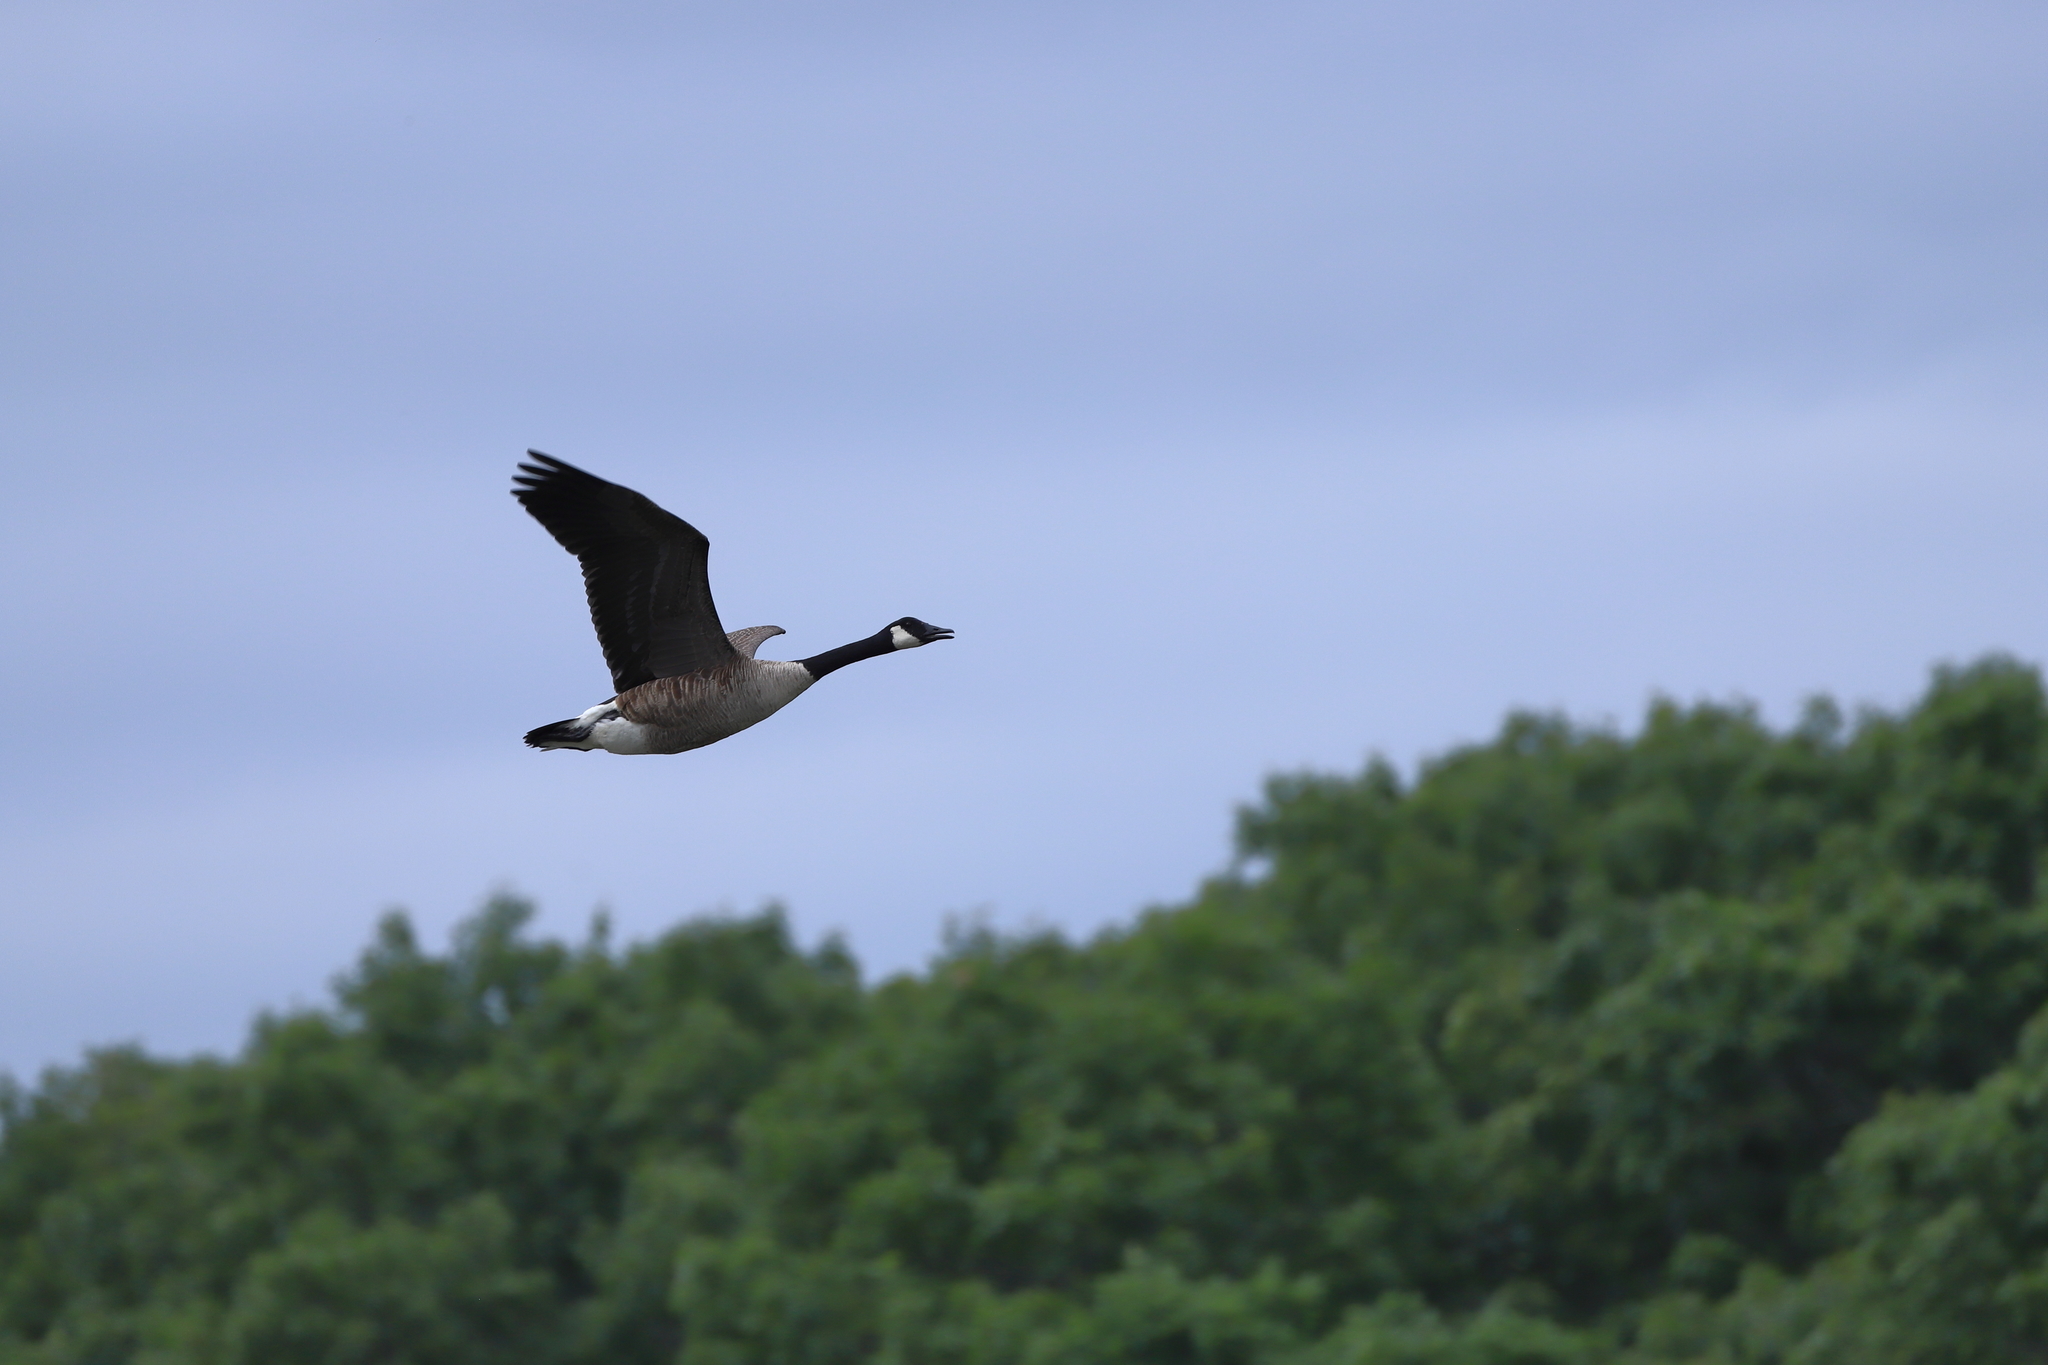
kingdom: Animalia
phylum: Chordata
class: Aves
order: Anseriformes
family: Anatidae
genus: Branta
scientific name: Branta canadensis
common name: Canada goose
